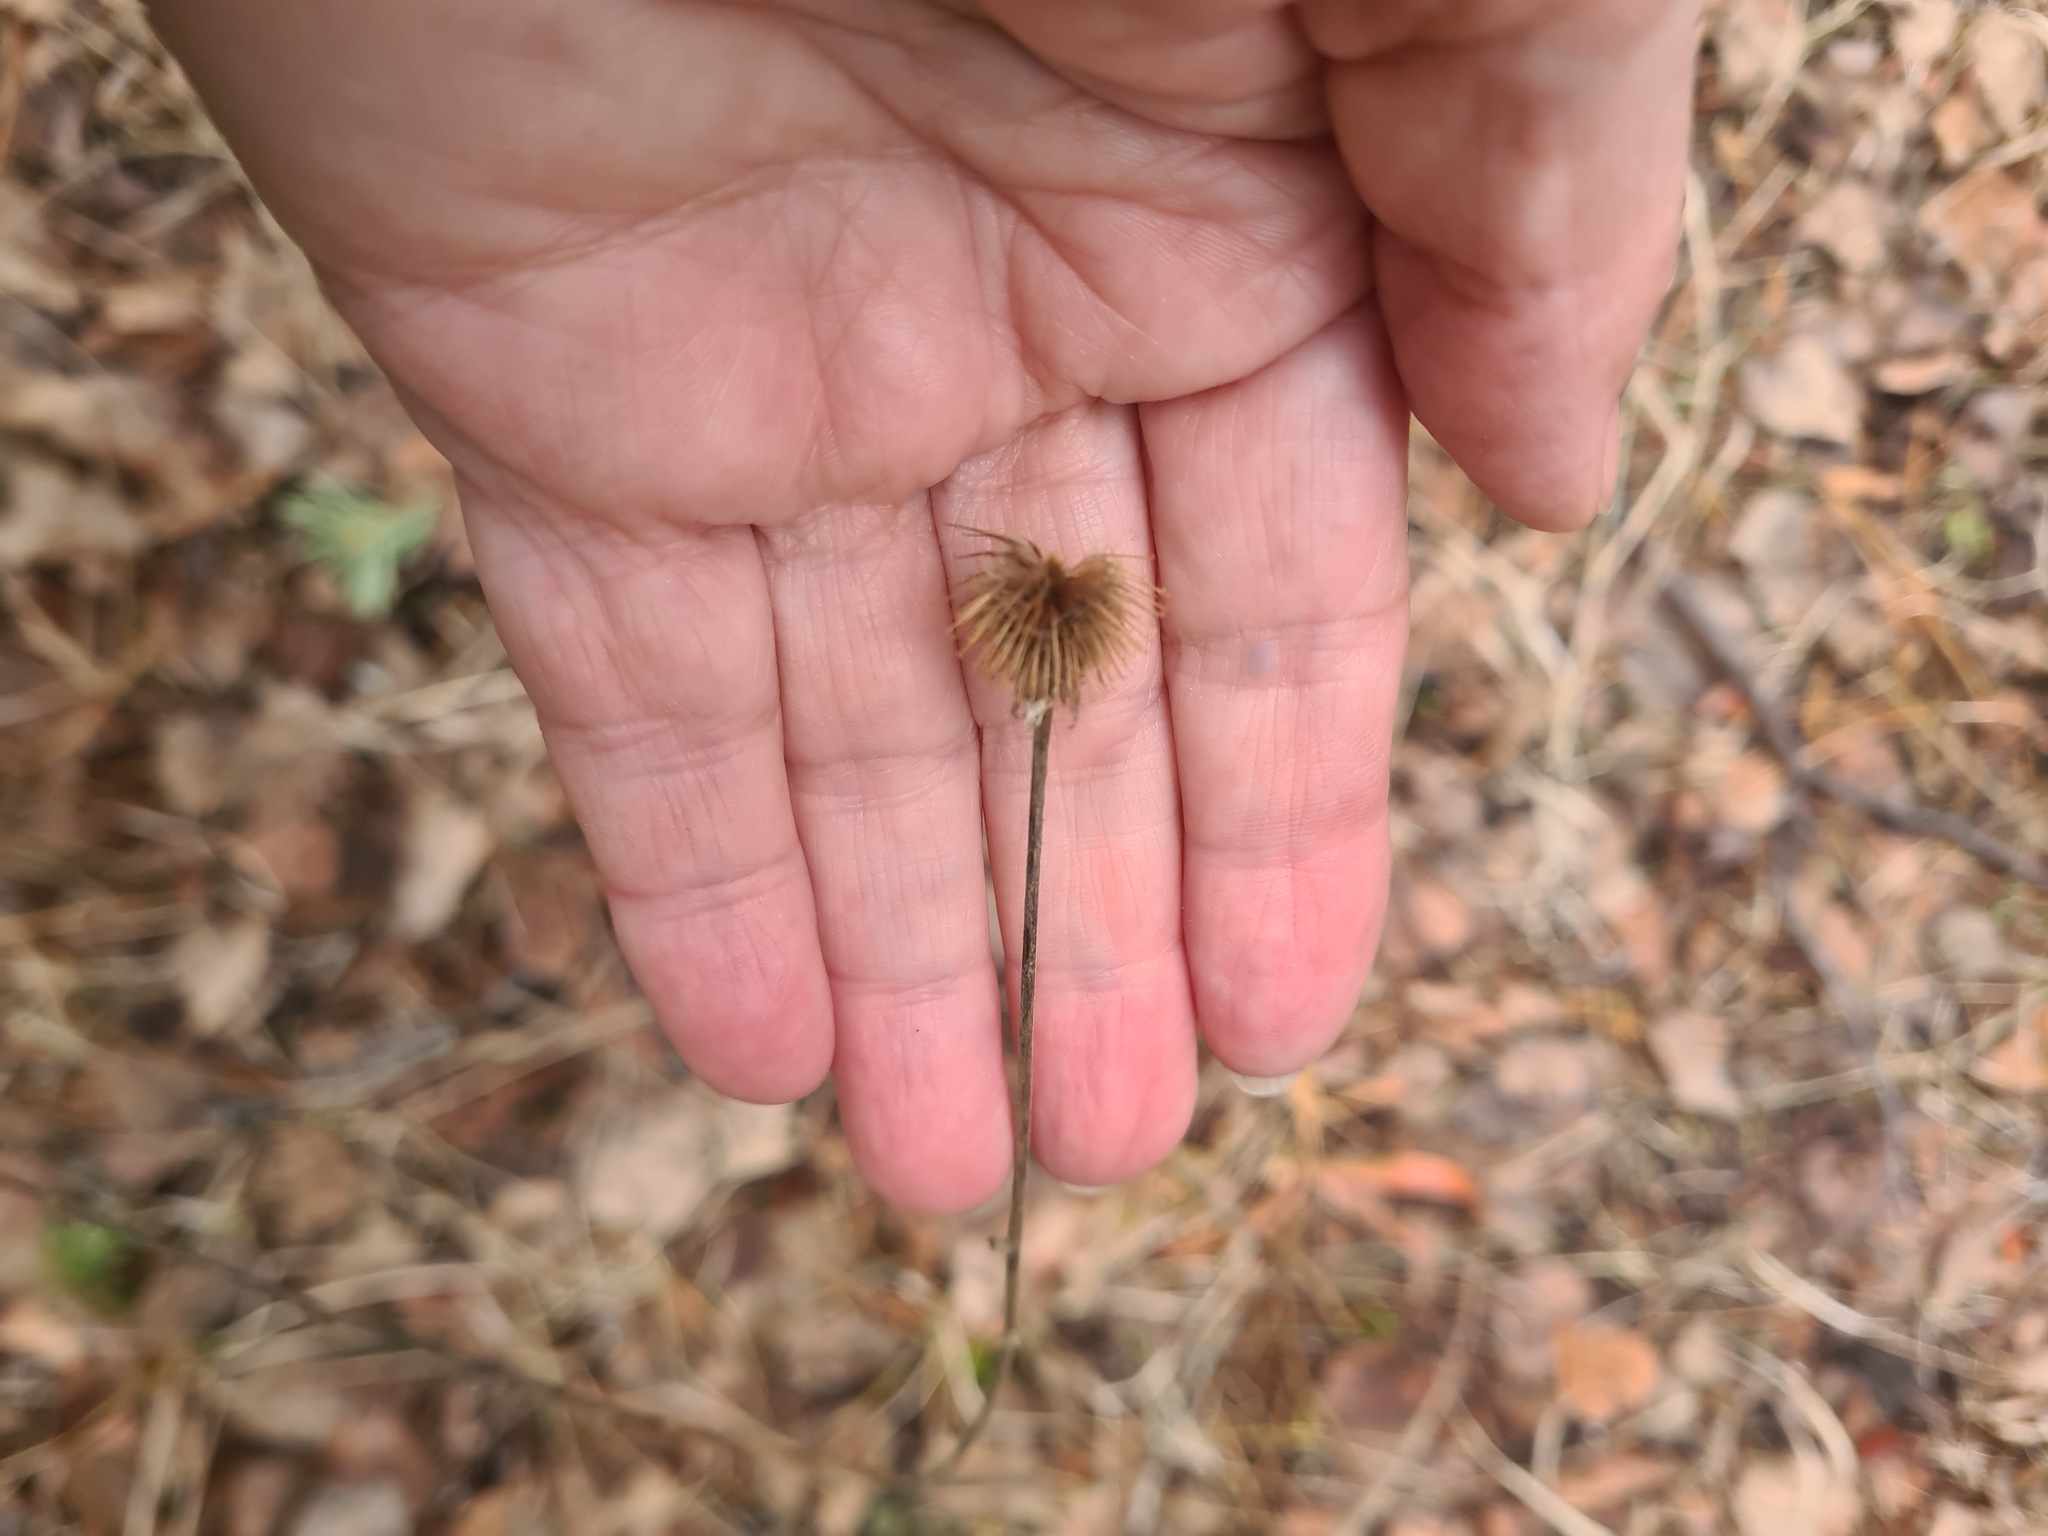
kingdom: Plantae
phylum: Tracheophyta
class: Magnoliopsida
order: Rosales
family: Rosaceae
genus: Geum
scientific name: Geum aleppicum
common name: Yellow avens
